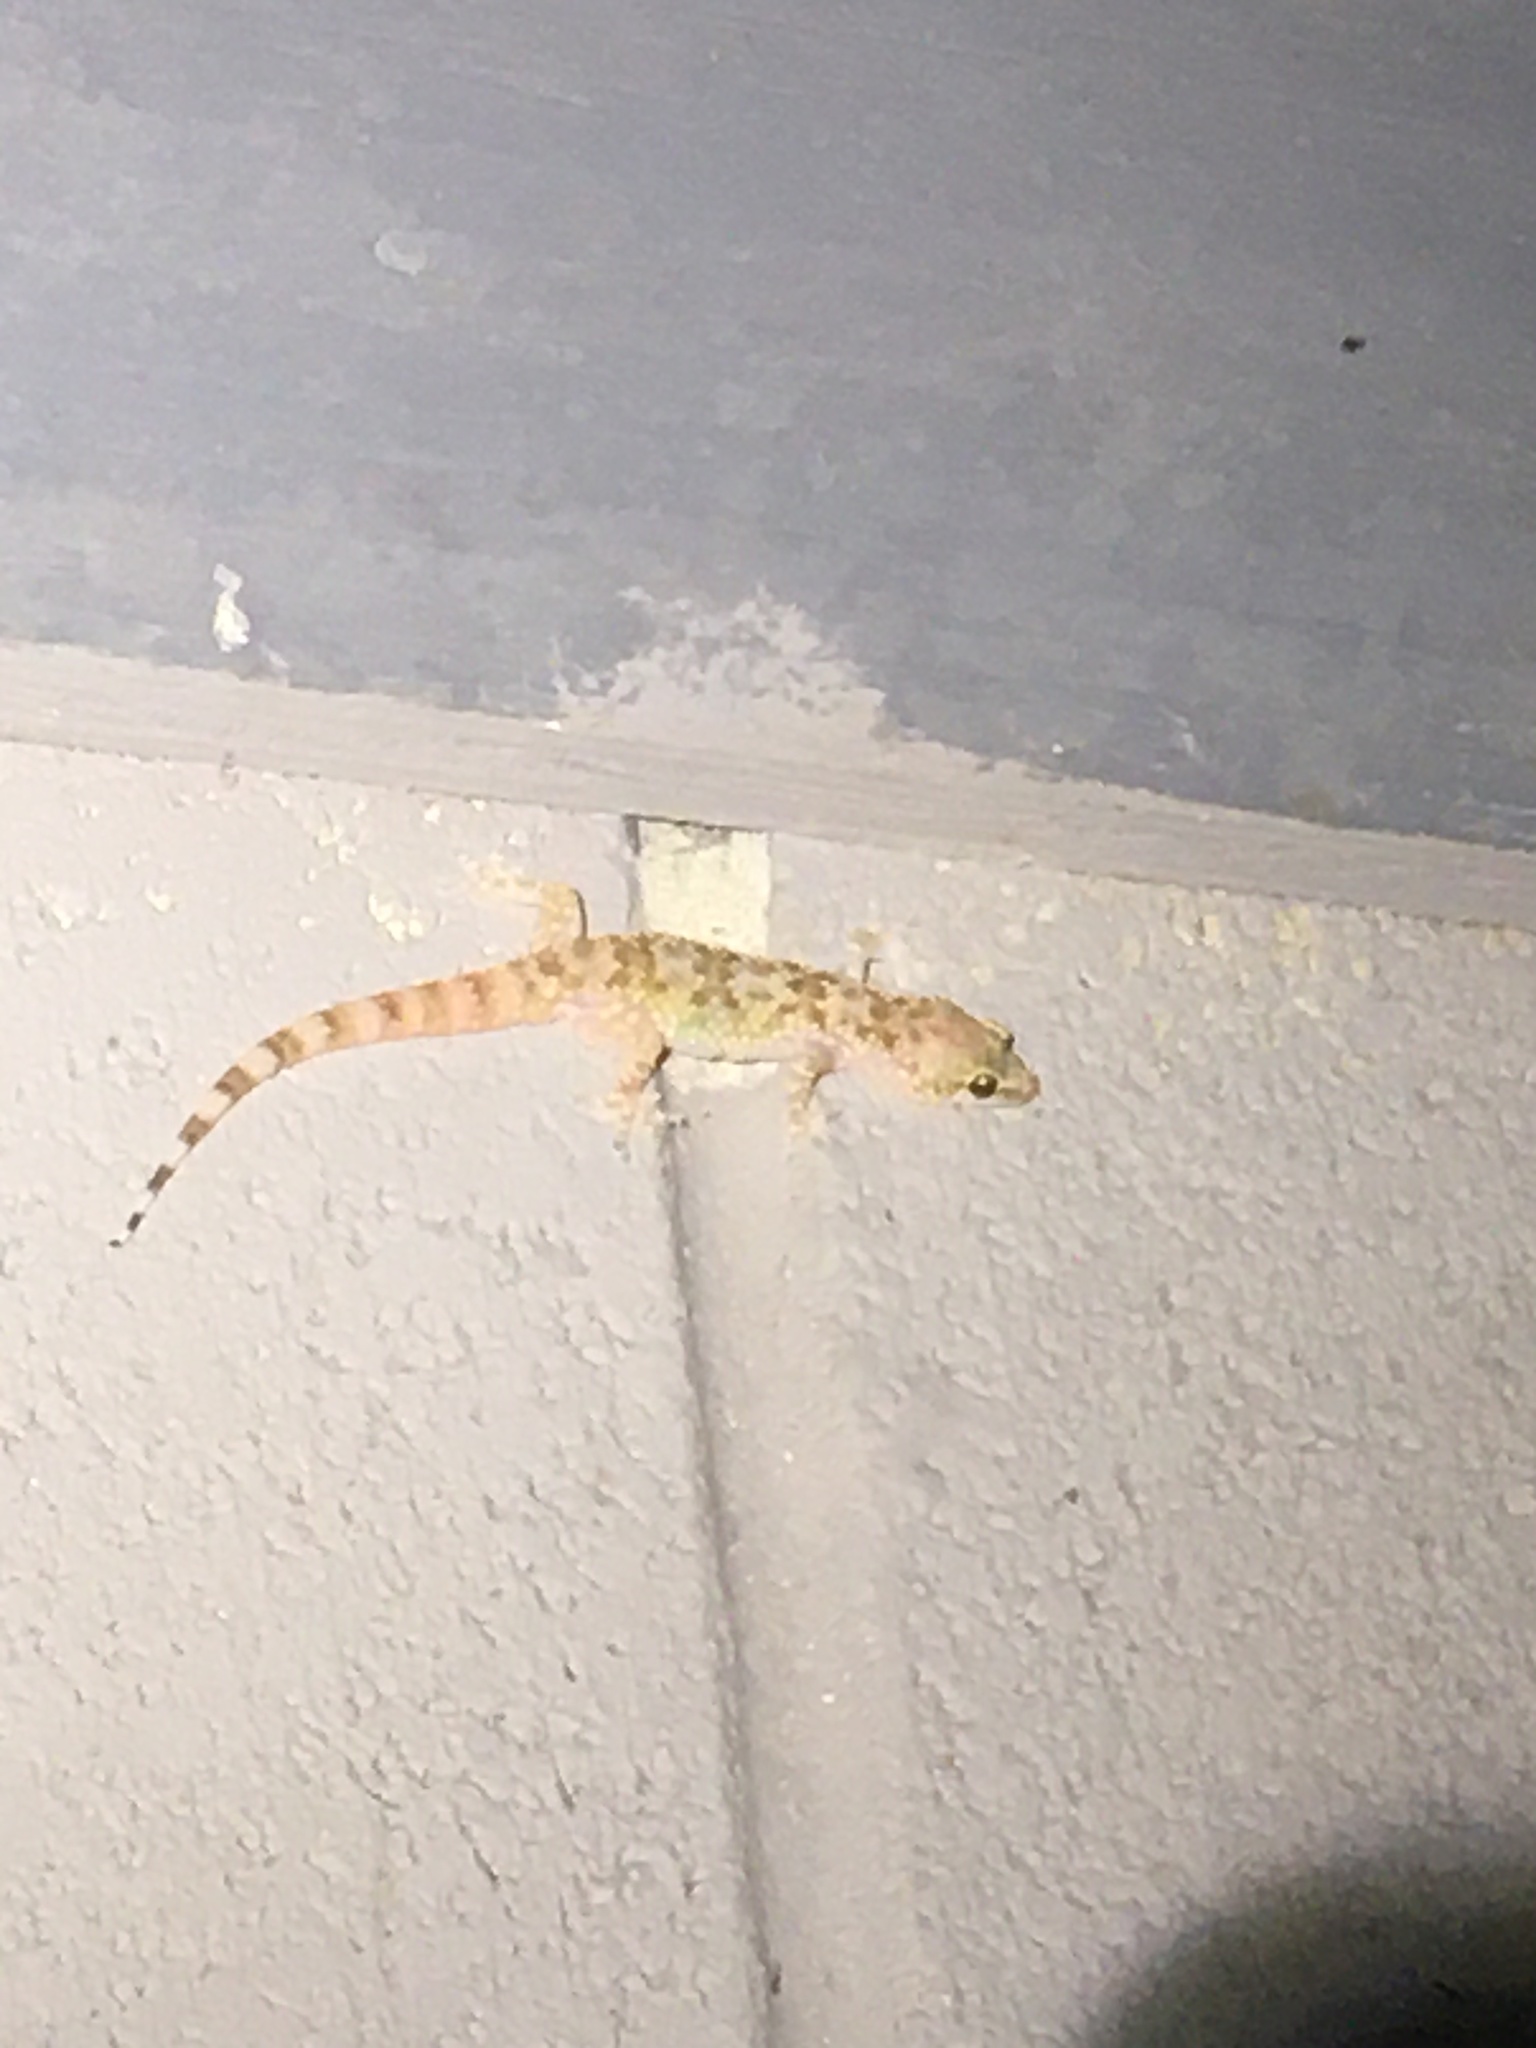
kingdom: Animalia
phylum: Chordata
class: Squamata
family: Gekkonidae
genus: Hemidactylus
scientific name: Hemidactylus turcicus
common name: Turkish gecko
